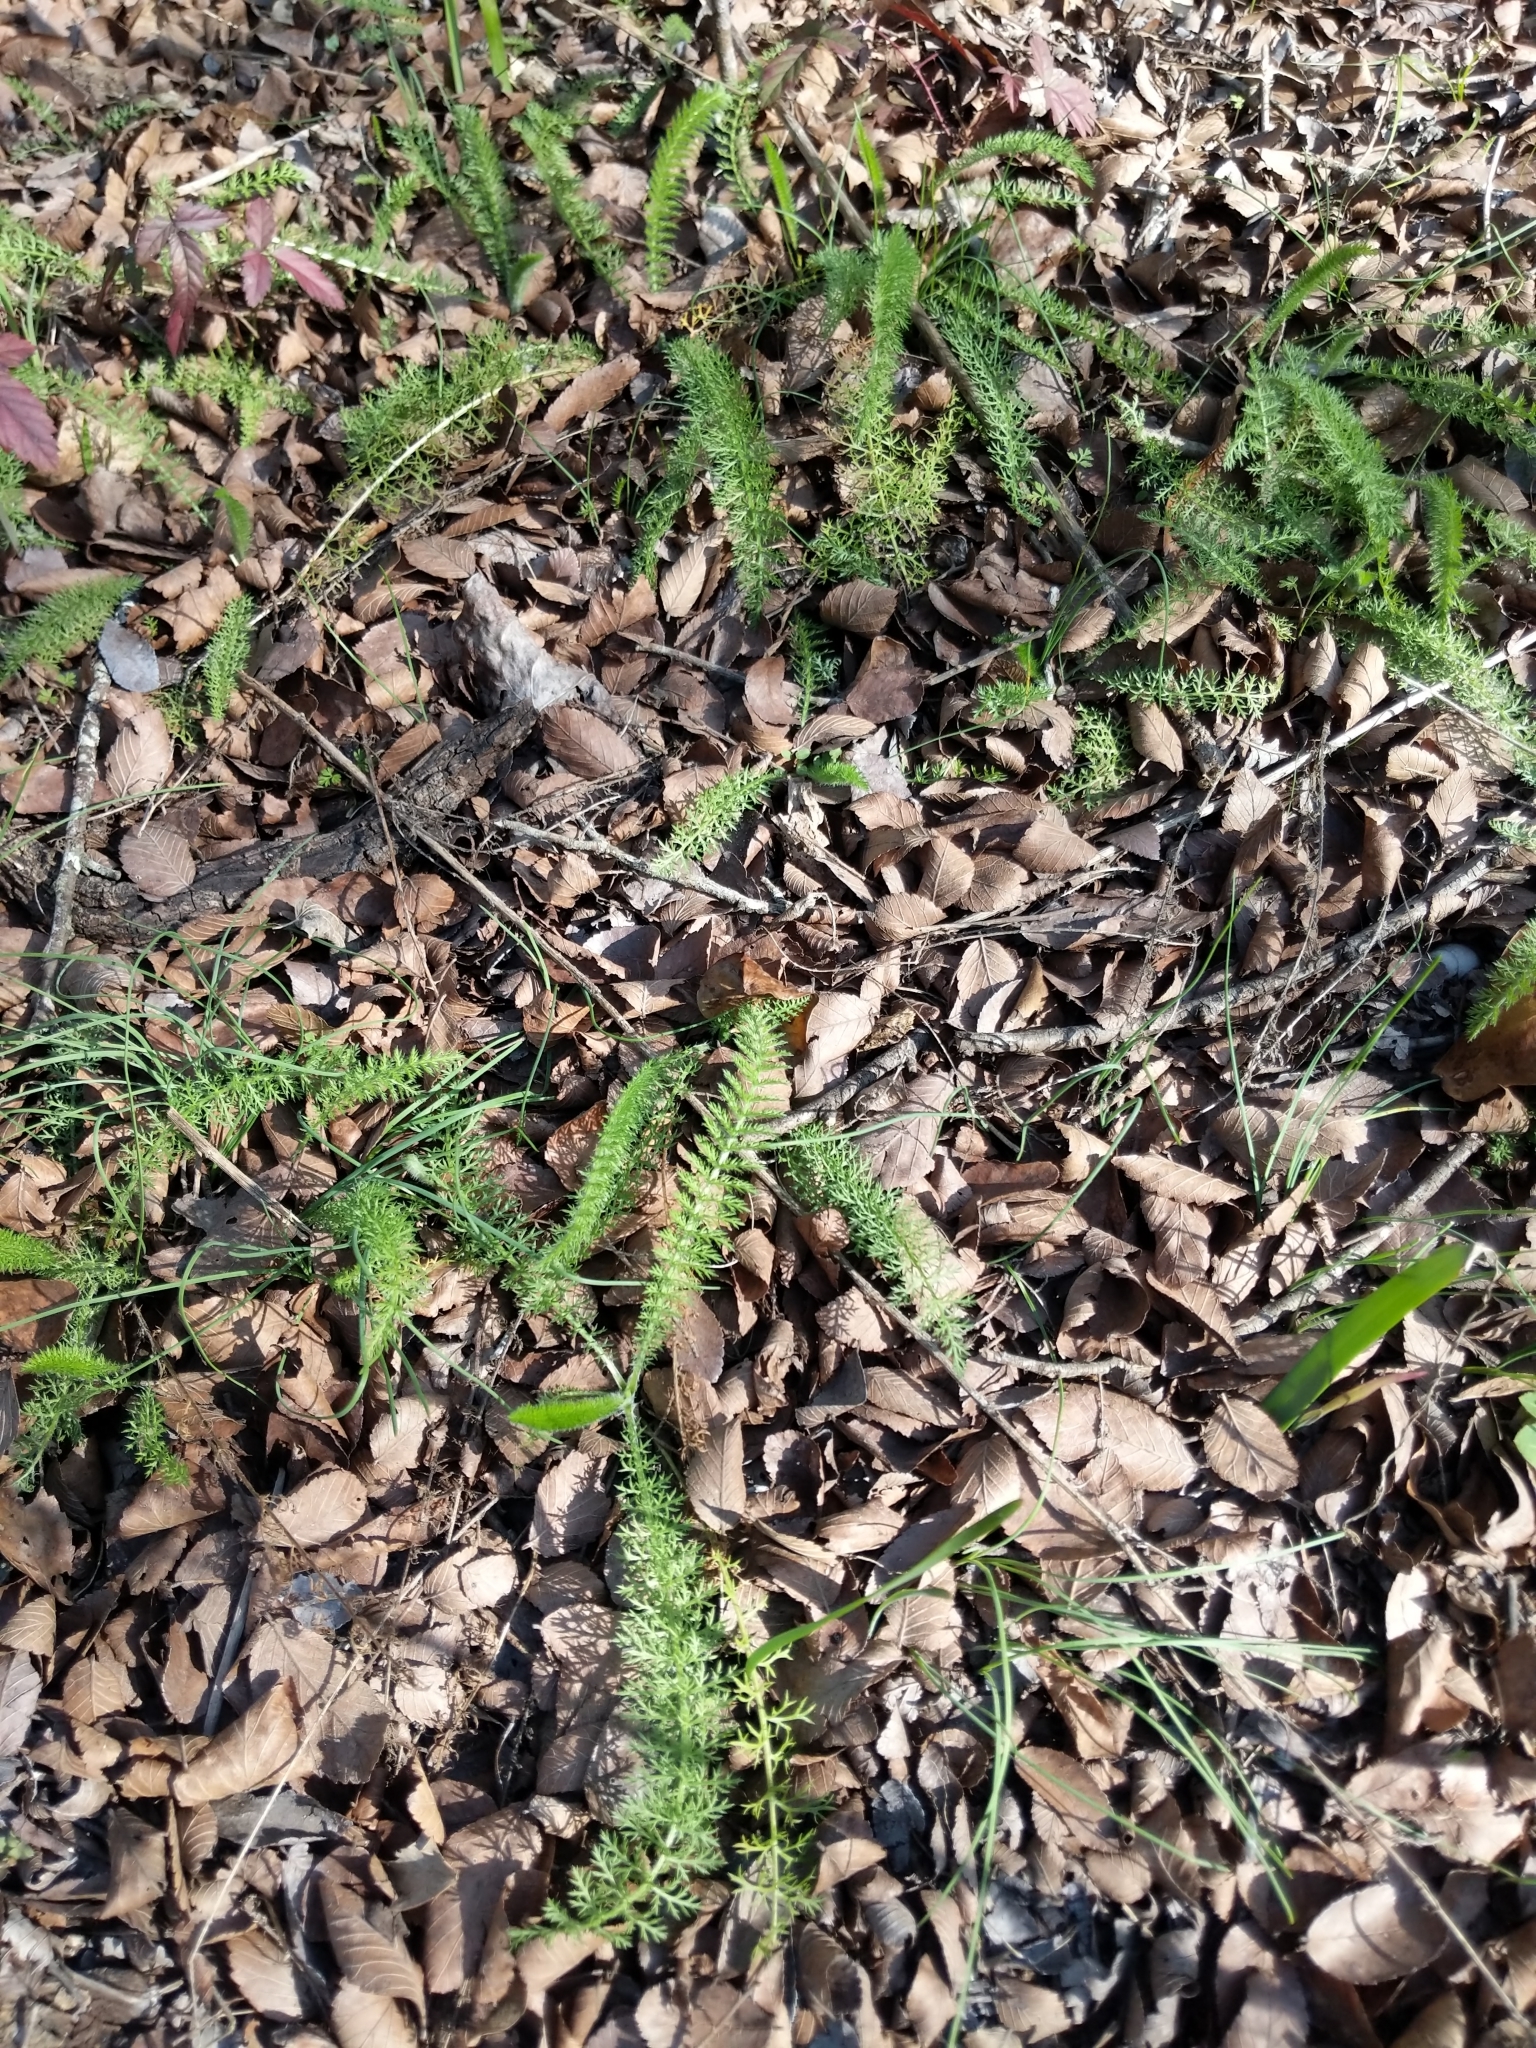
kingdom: Plantae
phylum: Tracheophyta
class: Magnoliopsida
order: Asterales
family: Asteraceae
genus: Achillea
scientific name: Achillea millefolium
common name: Yarrow
